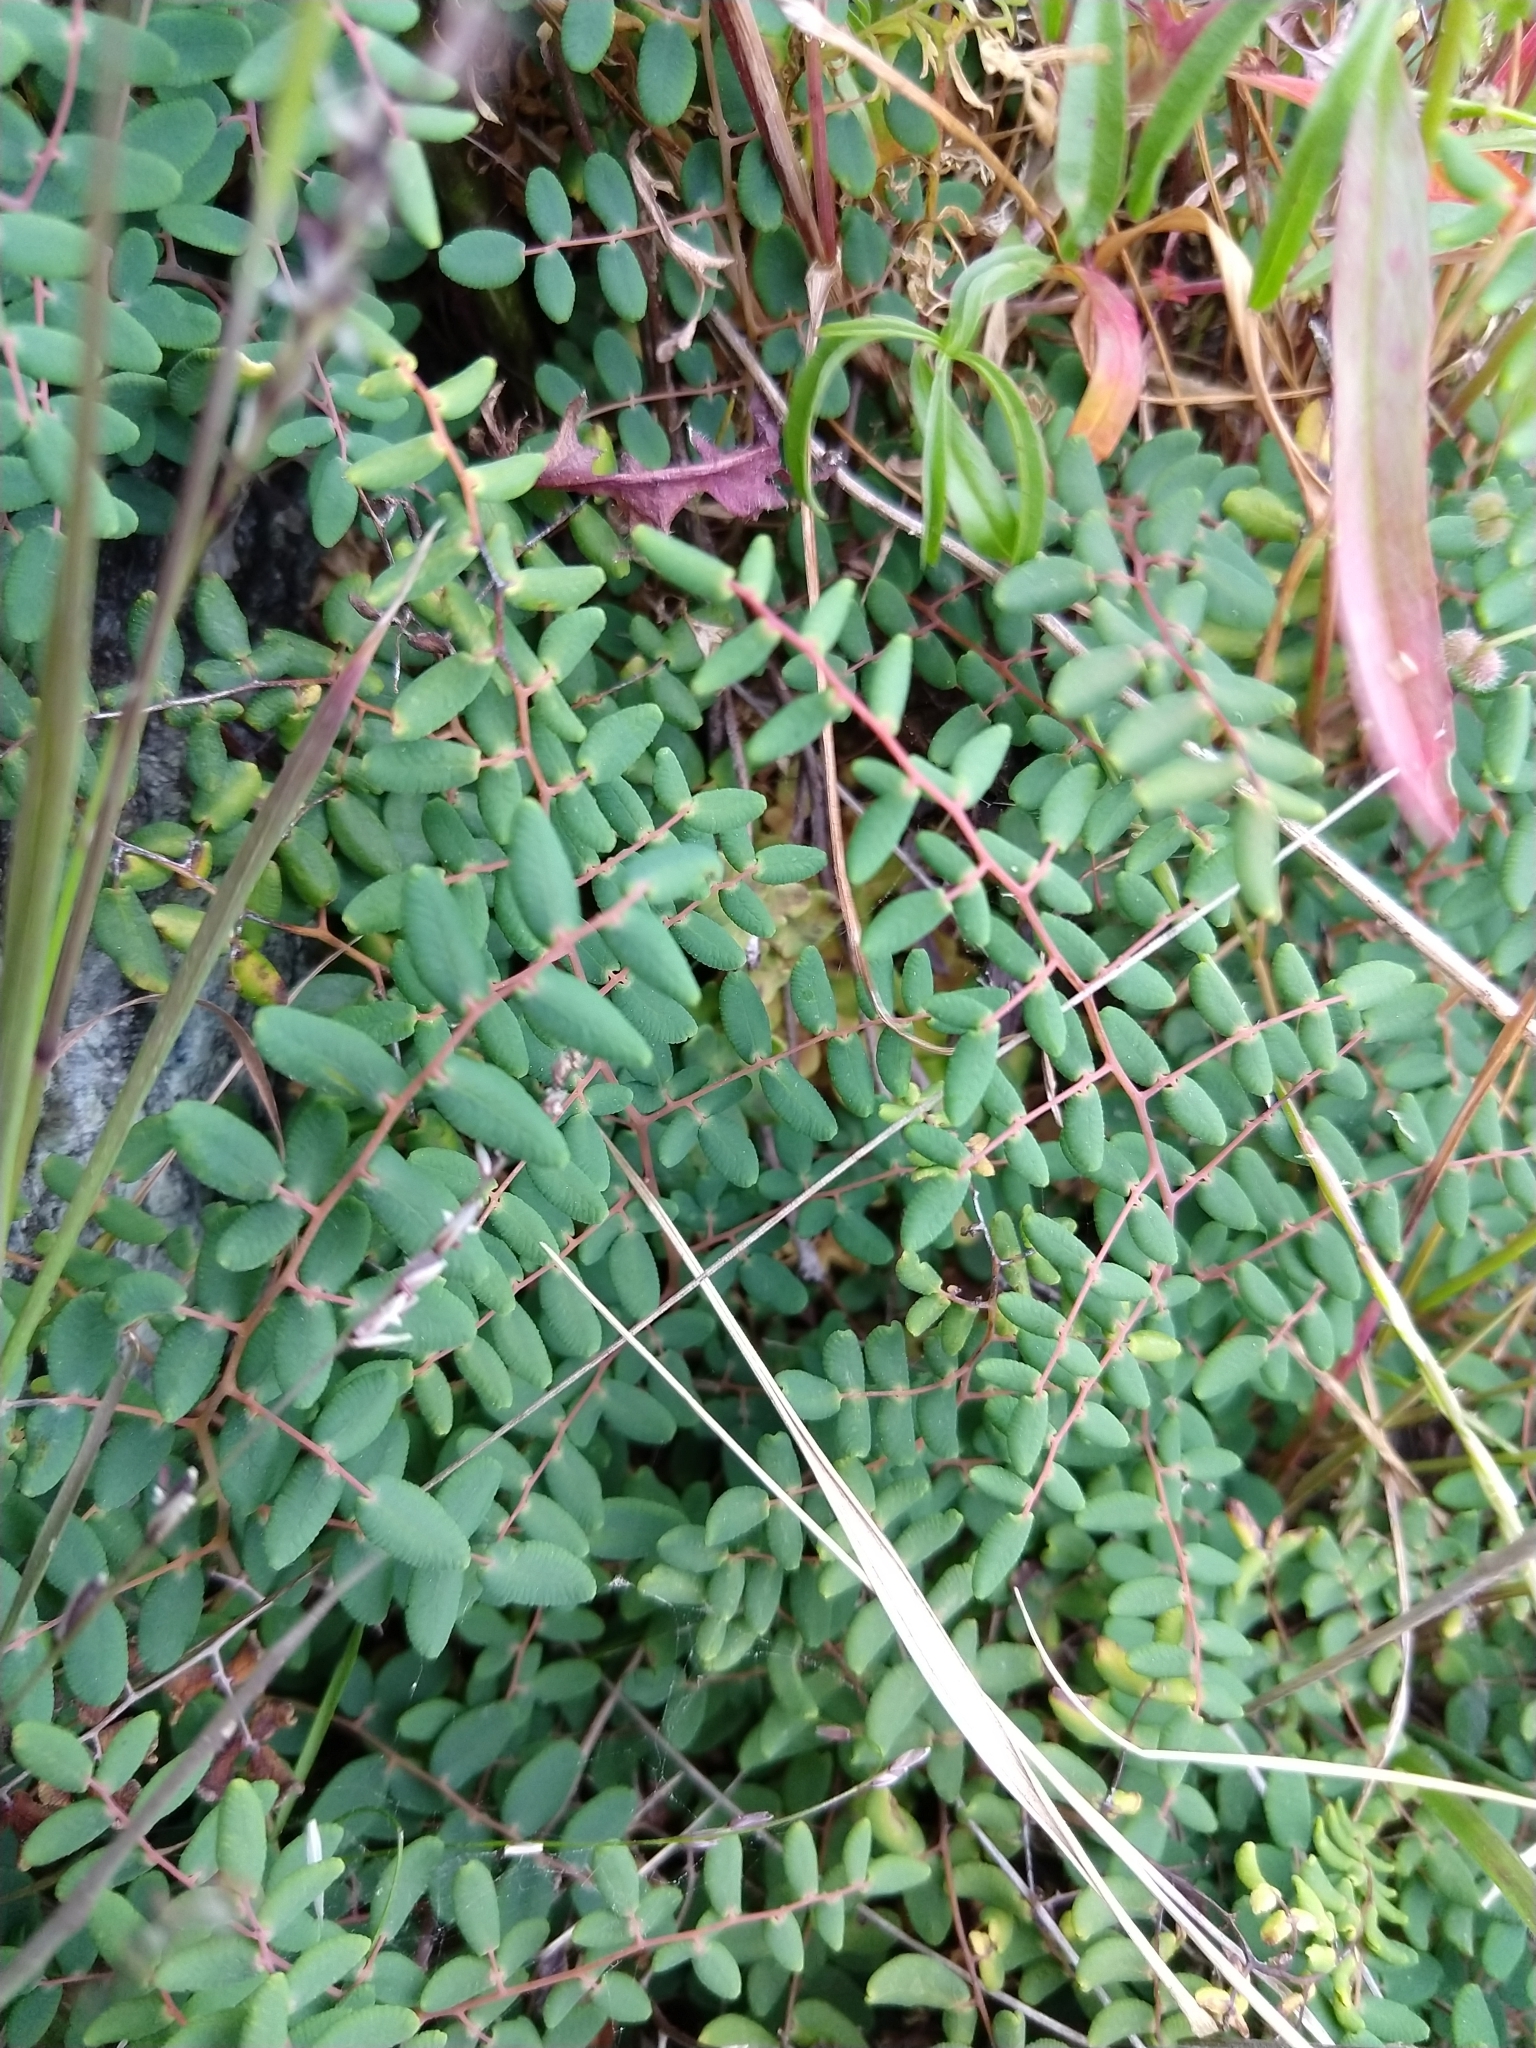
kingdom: Plantae
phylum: Tracheophyta
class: Polypodiopsida
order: Polypodiales
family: Pteridaceae
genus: Pellaea
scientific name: Pellaea andromedifolia
